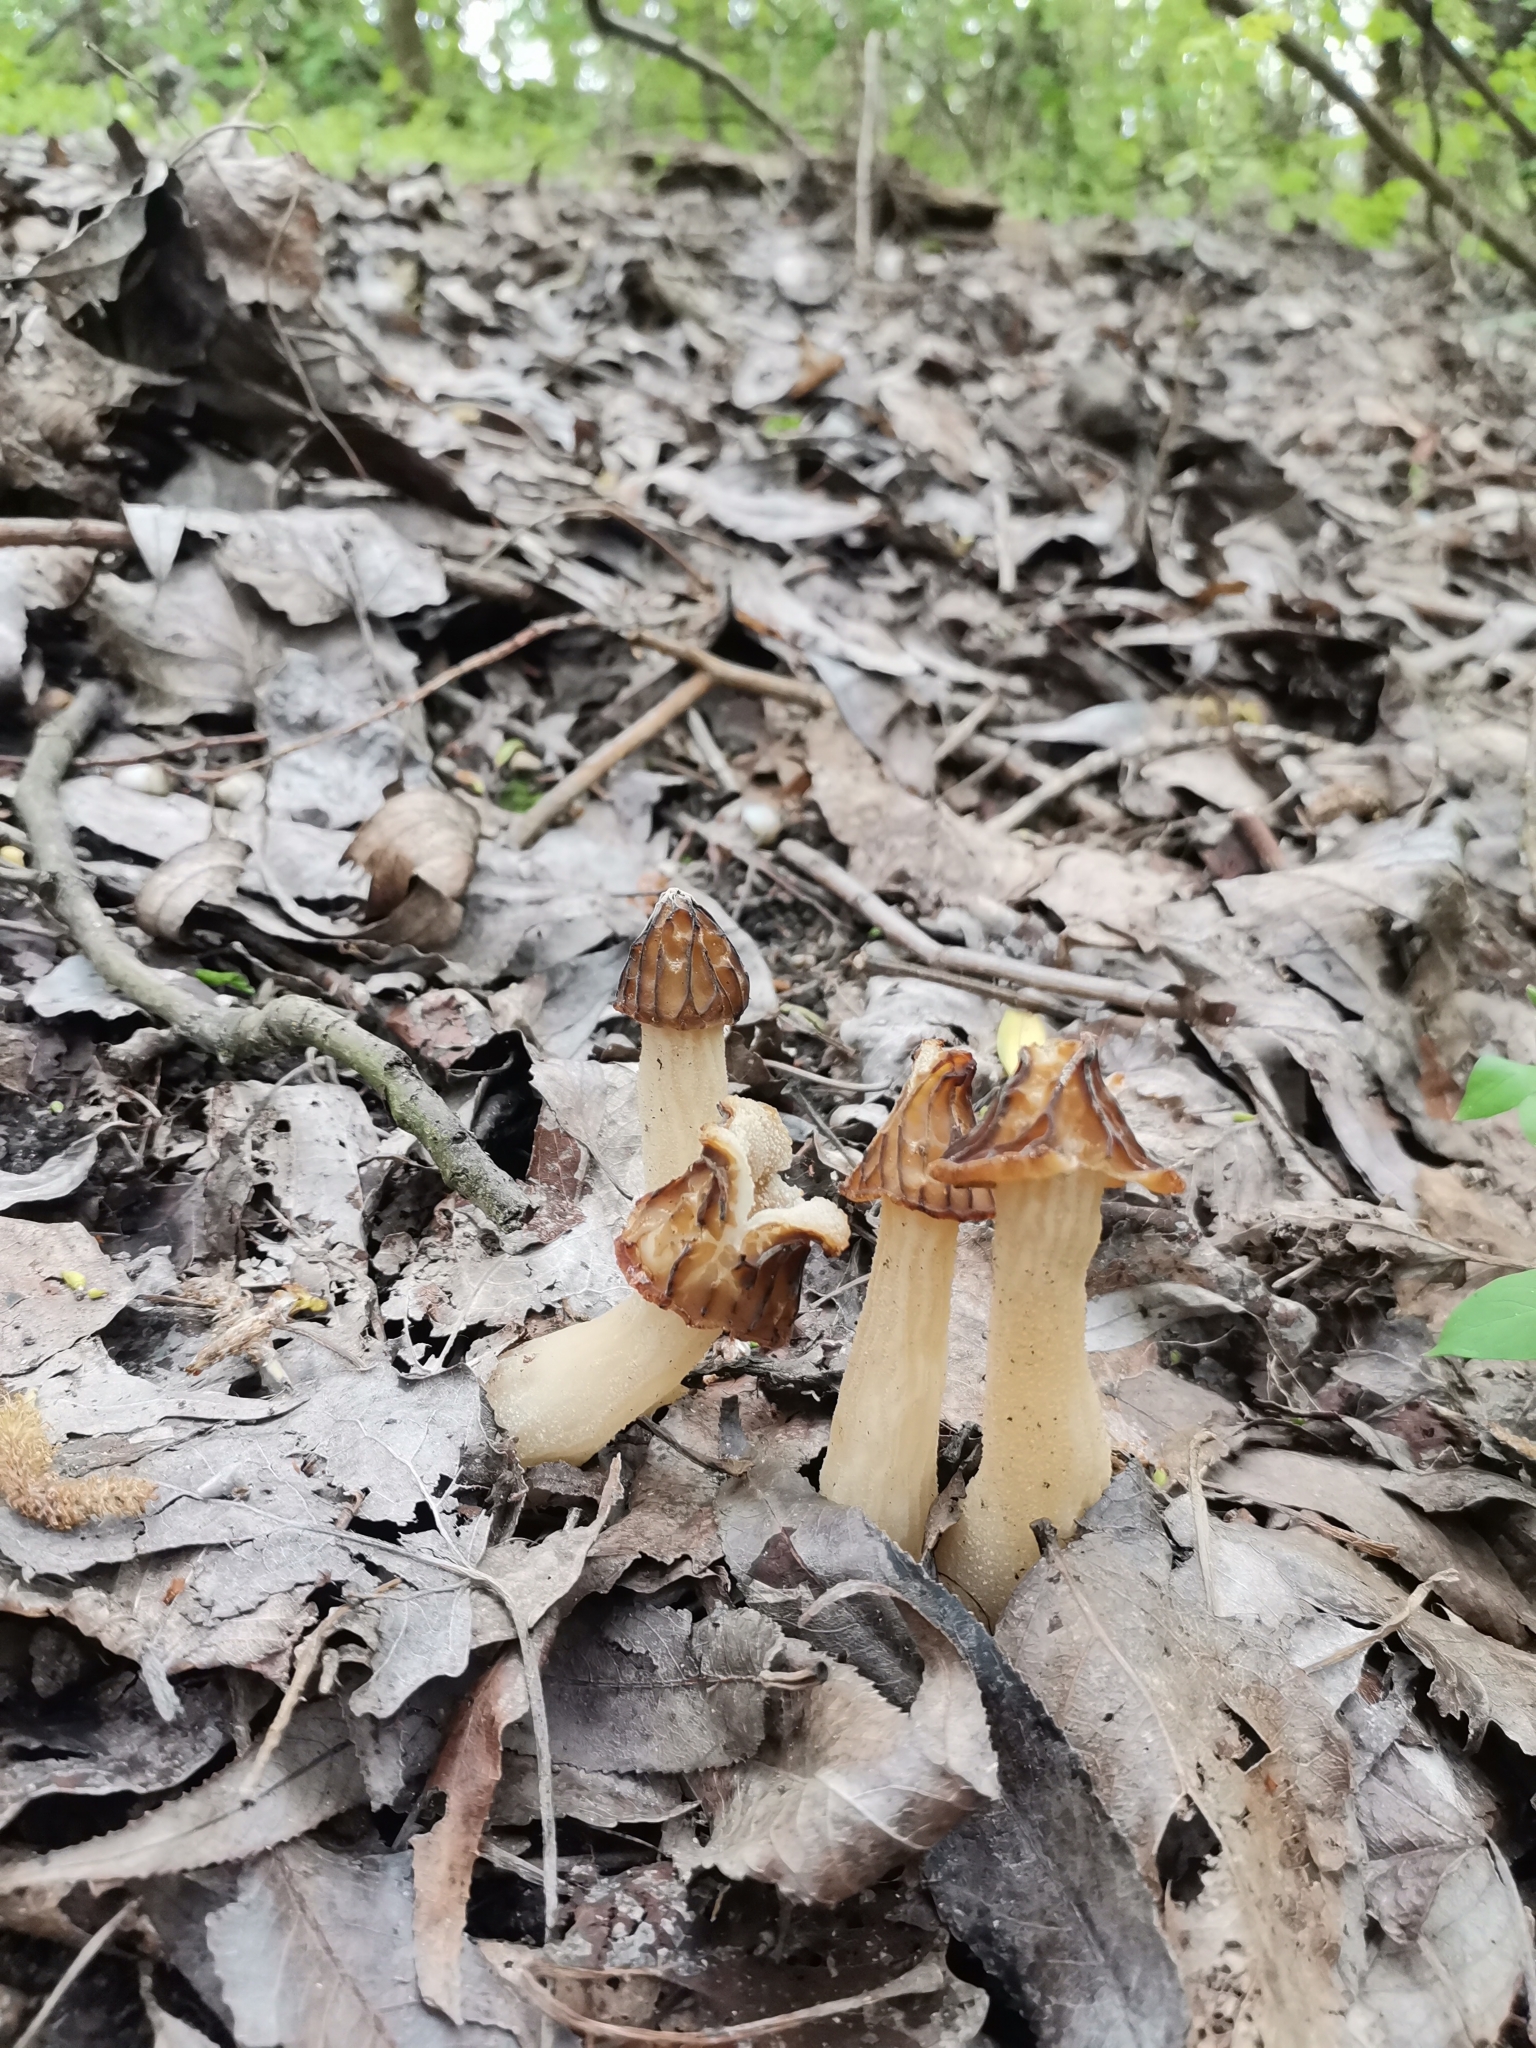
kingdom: Fungi
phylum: Ascomycota
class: Pezizomycetes
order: Pezizales
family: Morchellaceae
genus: Morchella
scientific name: Morchella semilibera
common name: Semifree morel
